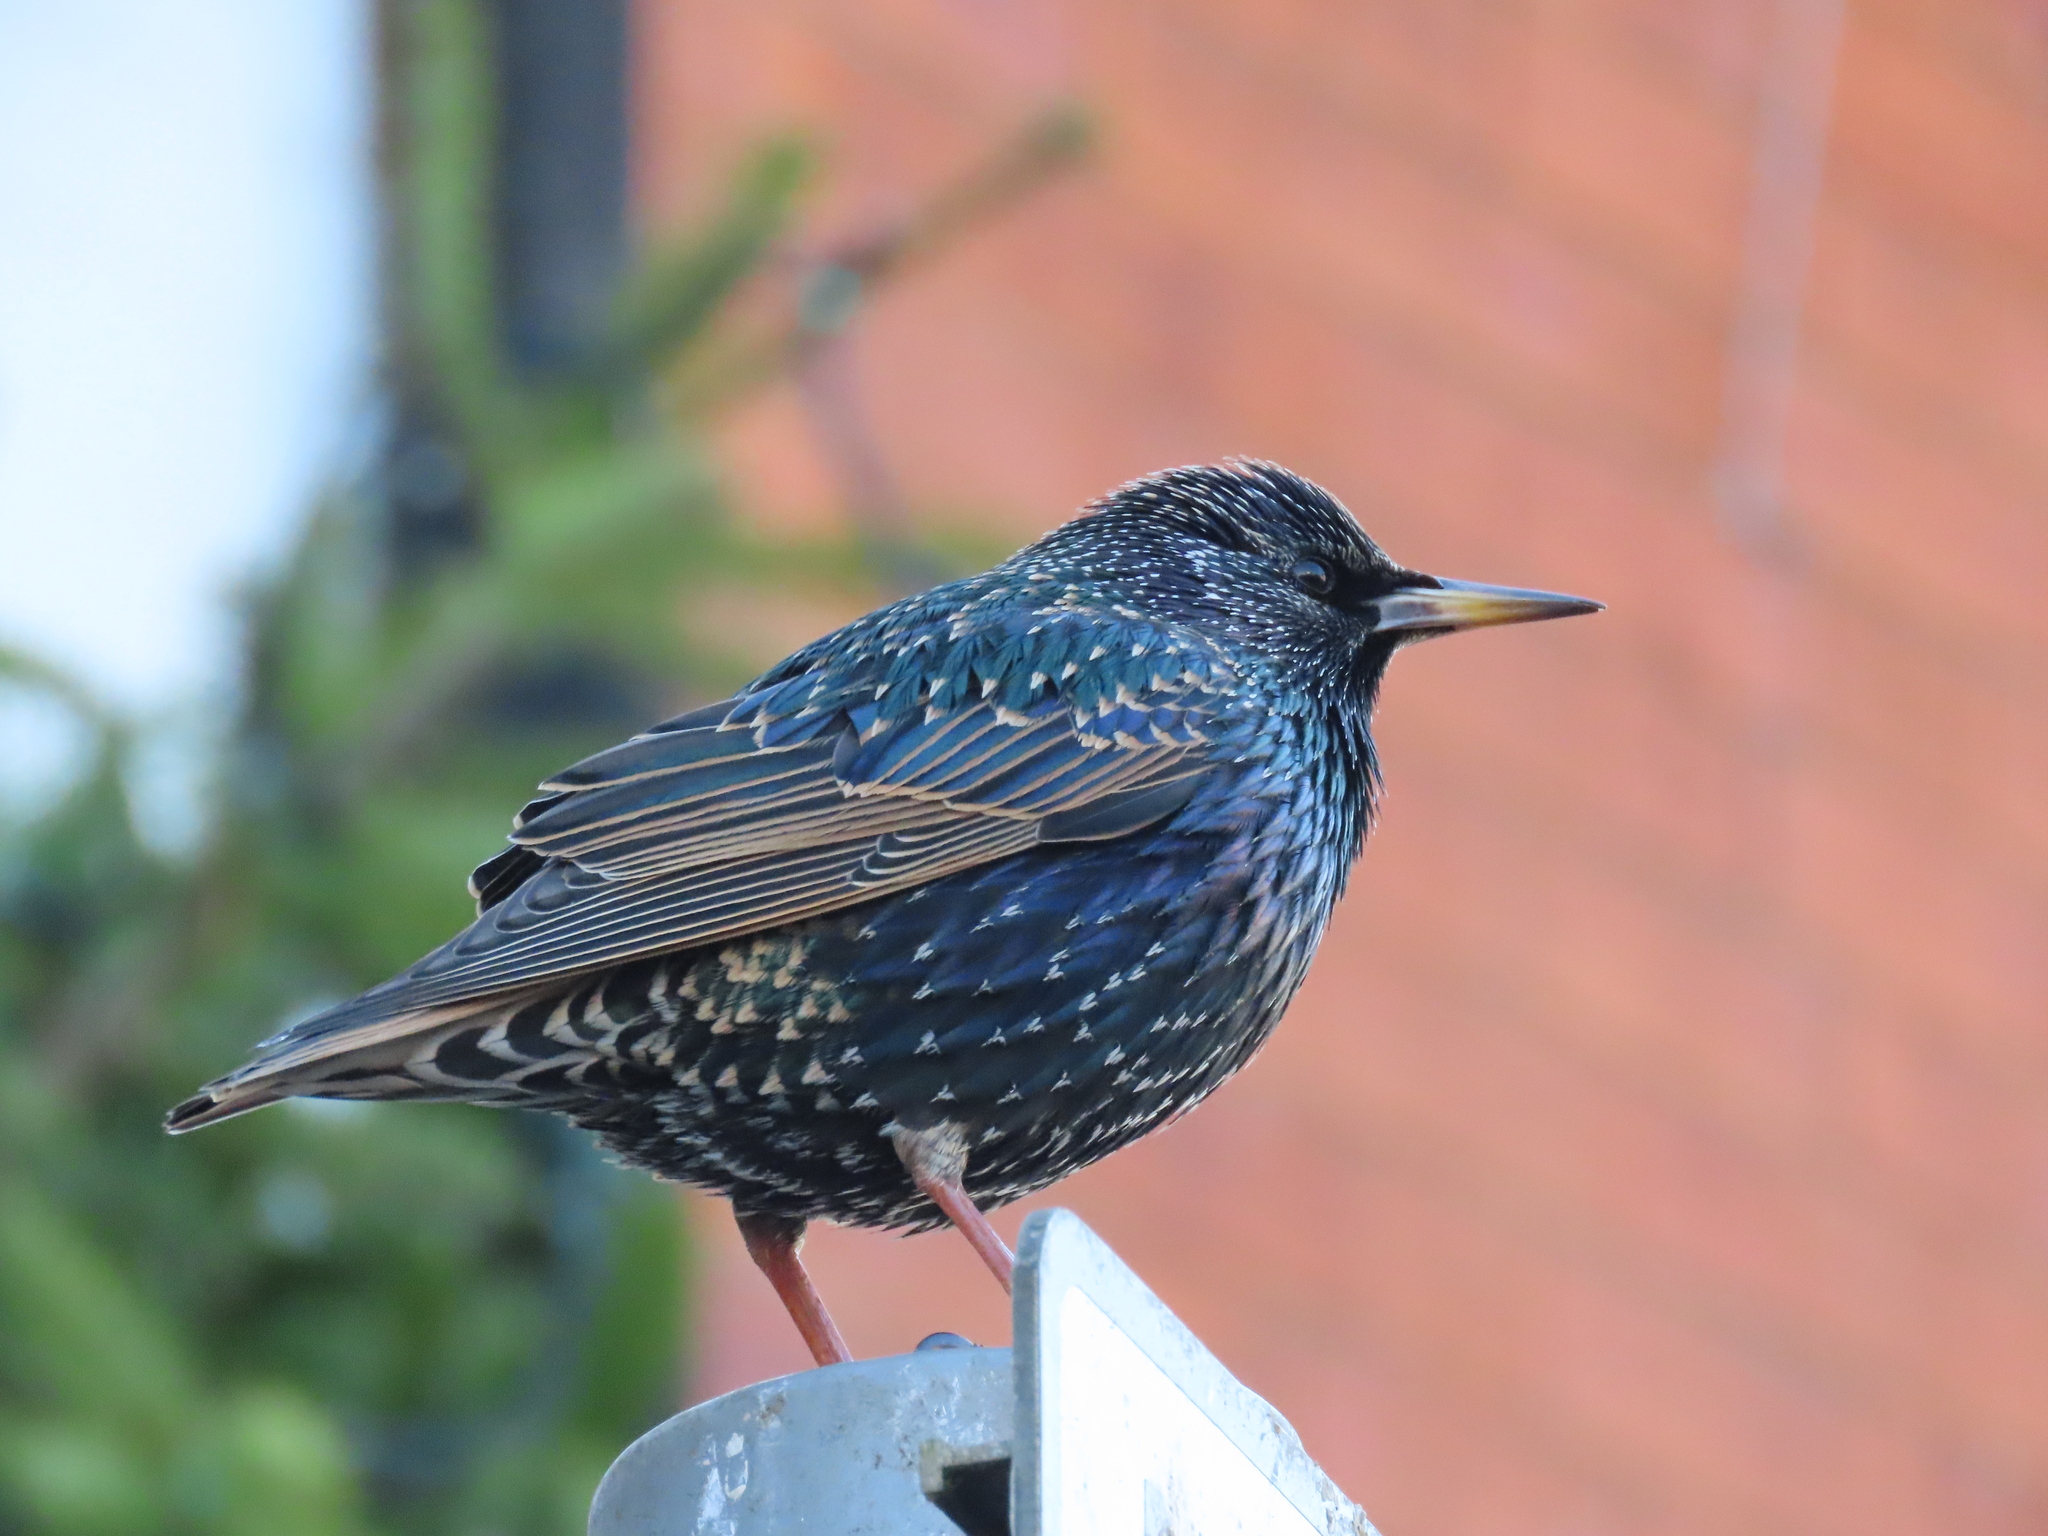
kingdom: Animalia
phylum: Chordata
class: Aves
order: Passeriformes
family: Sturnidae
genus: Sturnus
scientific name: Sturnus vulgaris
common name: Common starling
